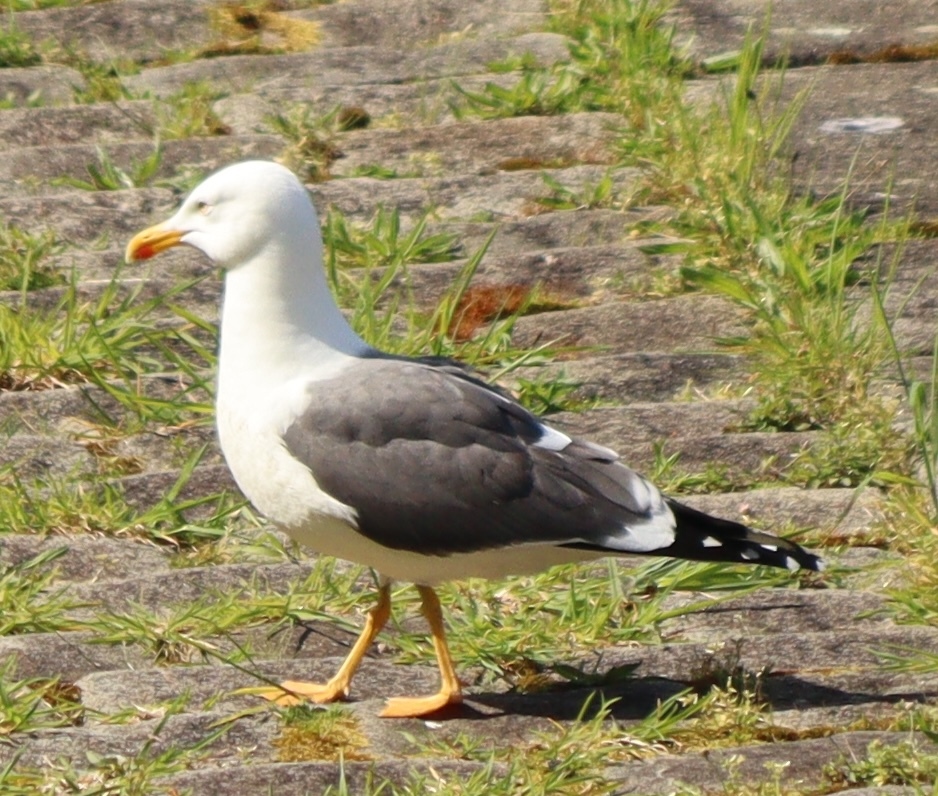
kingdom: Animalia
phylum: Chordata
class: Aves
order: Charadriiformes
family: Laridae
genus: Larus
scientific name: Larus fuscus
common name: Lesser black-backed gull
